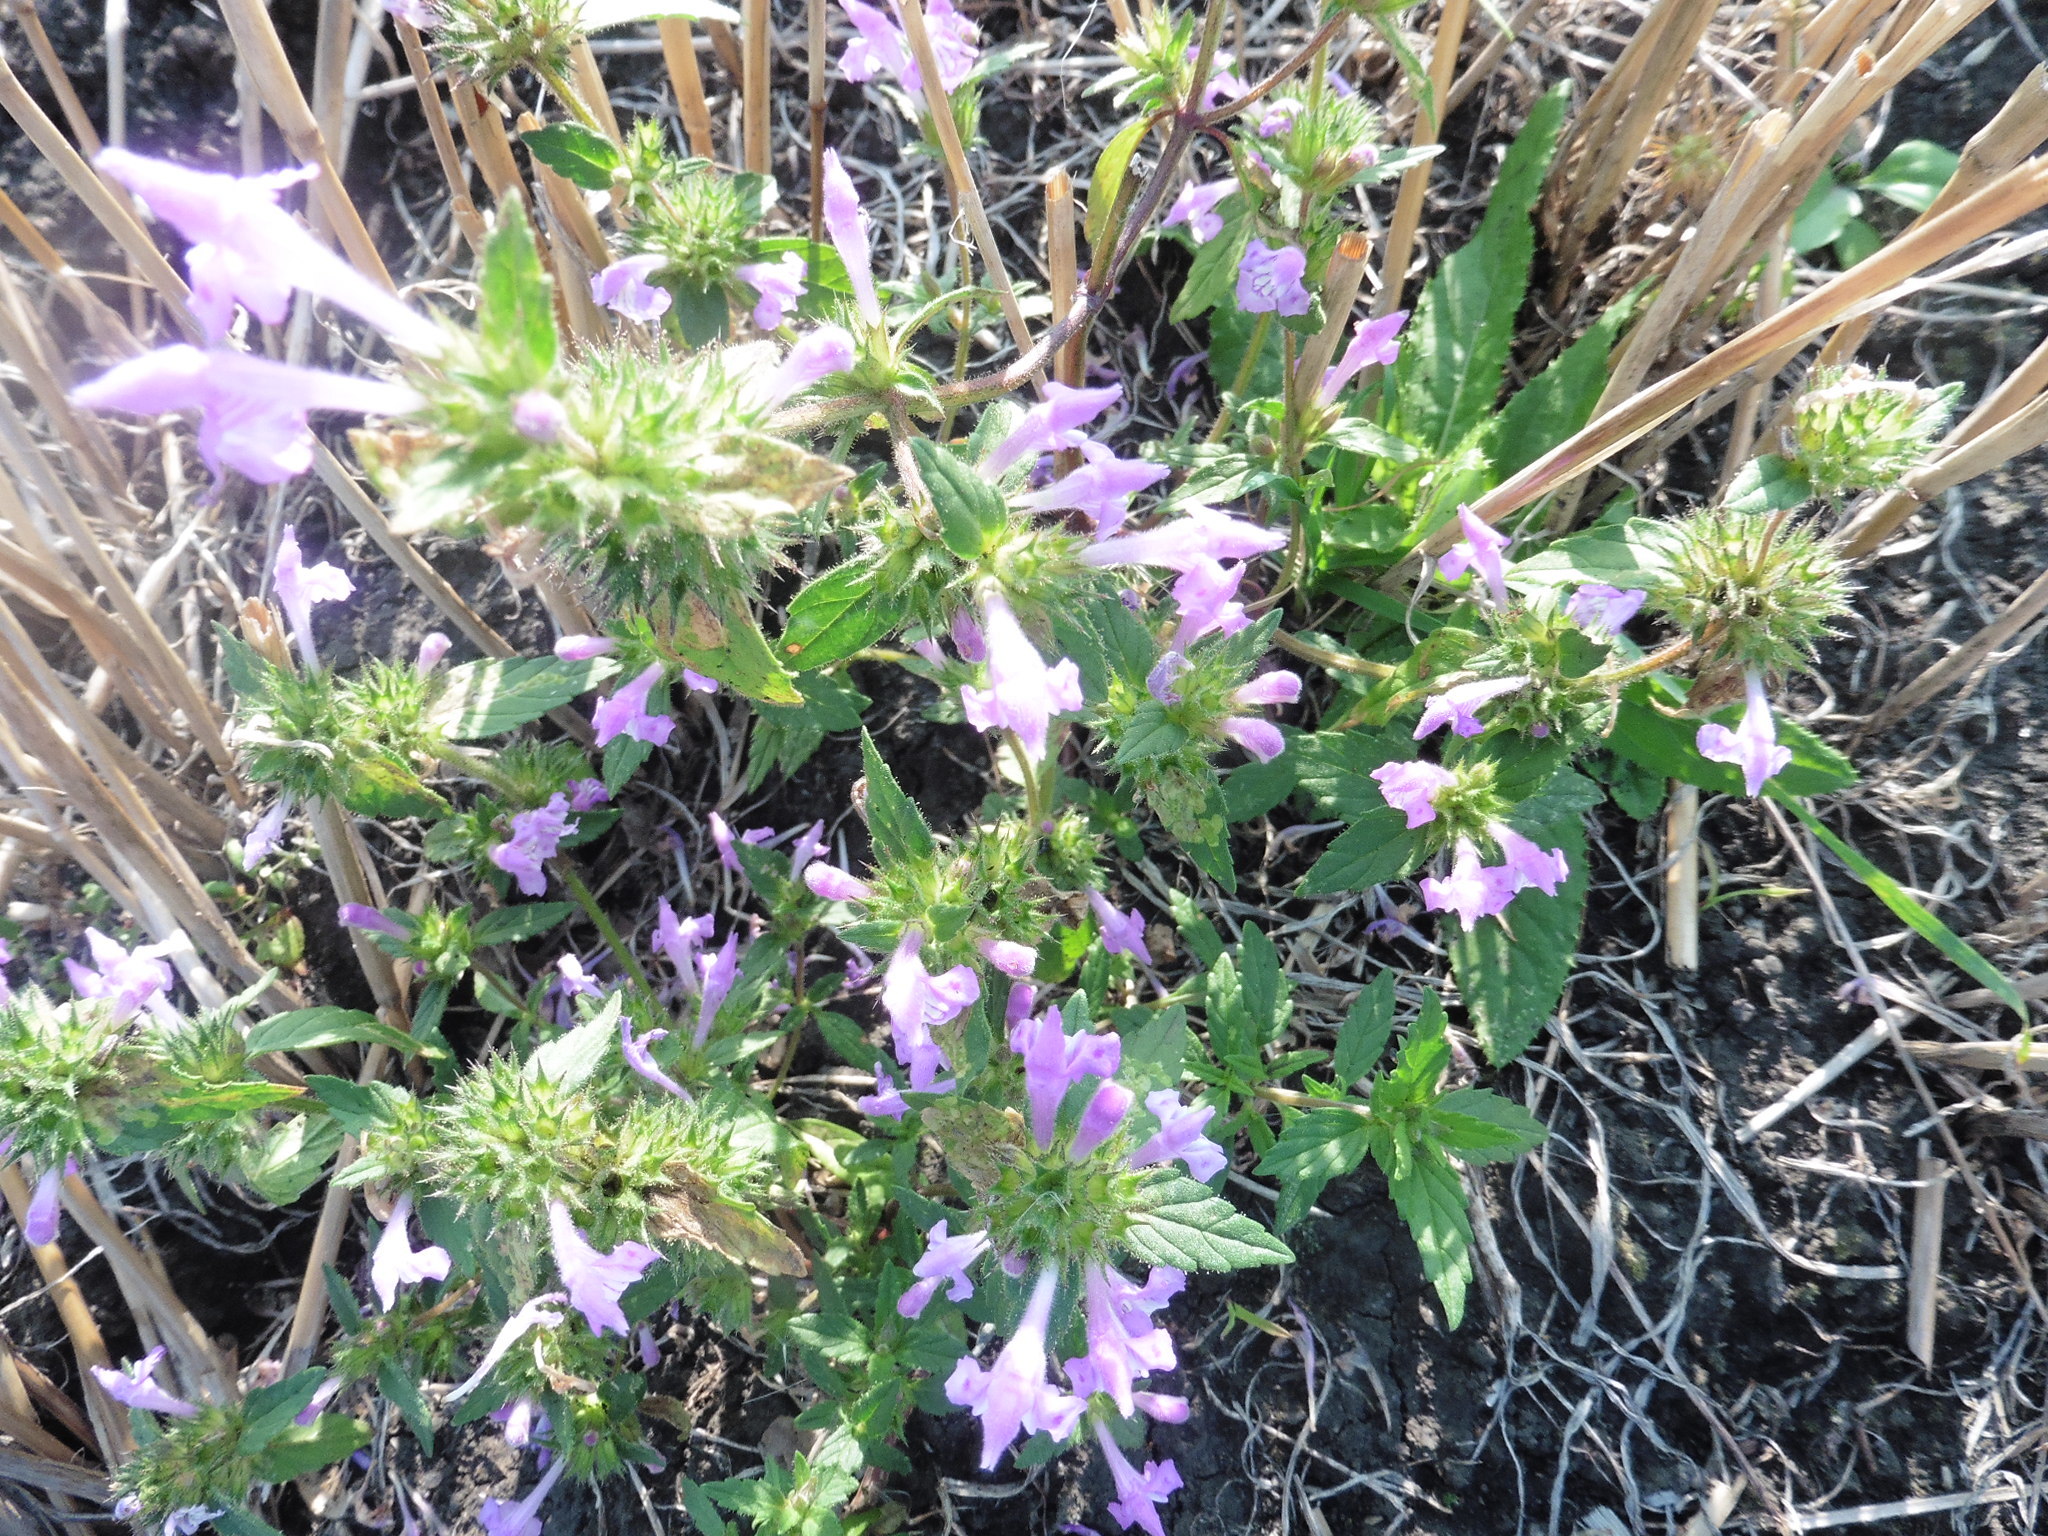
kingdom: Plantae
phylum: Tracheophyta
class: Magnoliopsida
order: Lamiales
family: Lamiaceae
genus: Galeopsis
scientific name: Galeopsis ladanum
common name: Broad-leaved hemp-nettle
